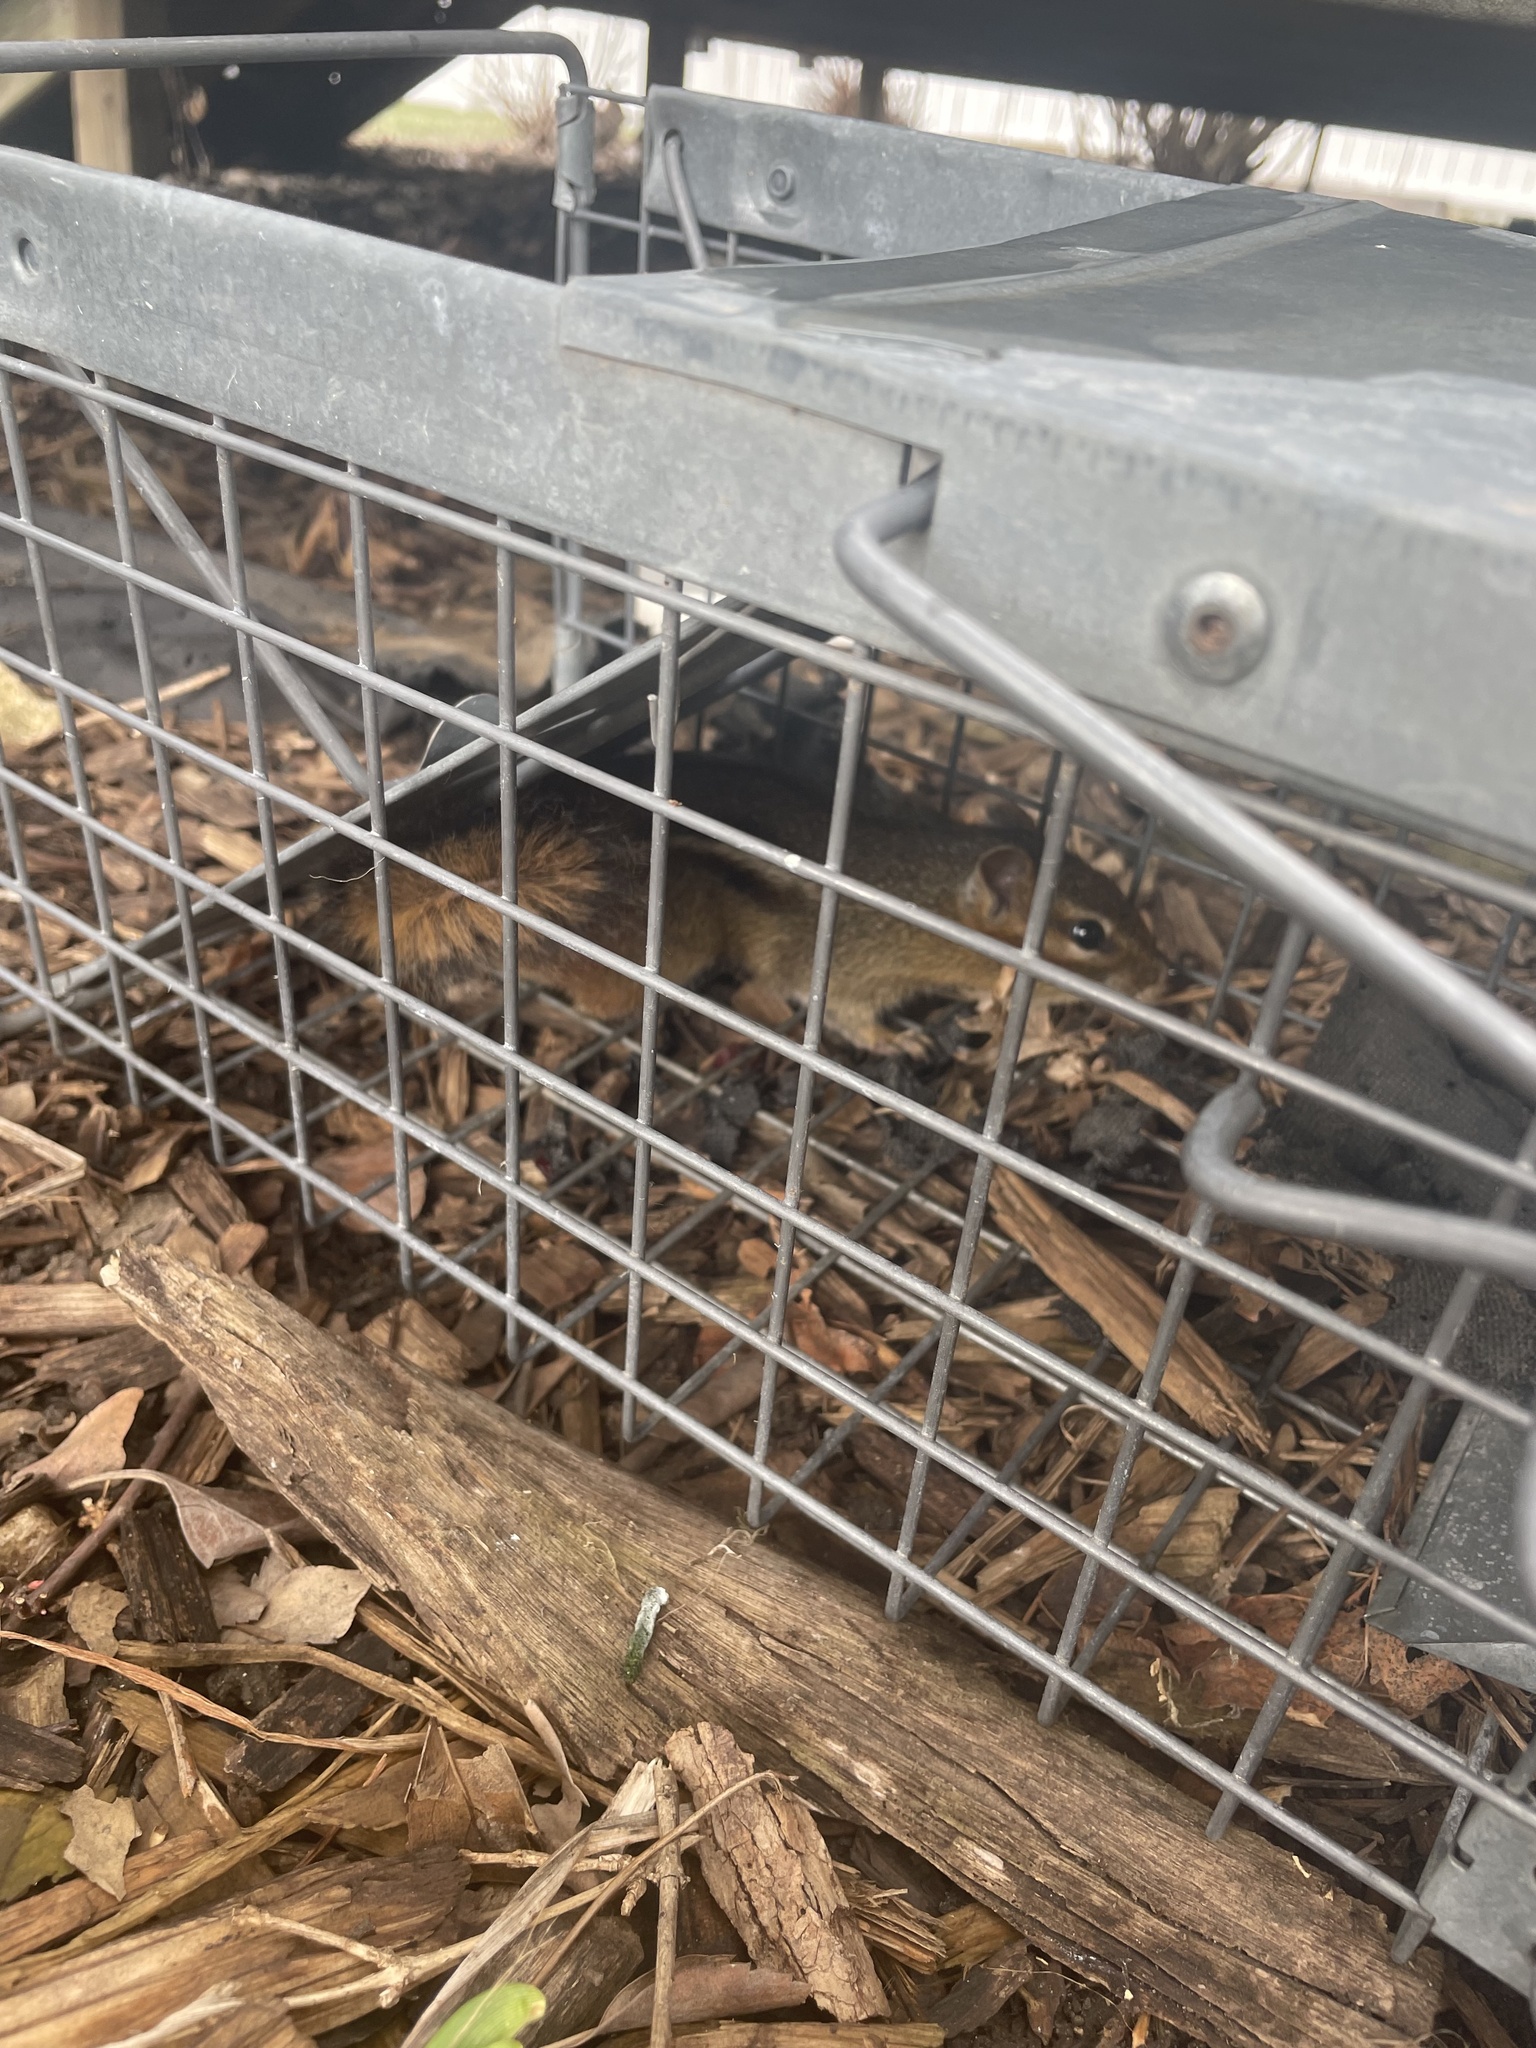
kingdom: Animalia
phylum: Chordata
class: Mammalia
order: Rodentia
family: Sciuridae
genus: Tamias
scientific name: Tamias striatus
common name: Eastern chipmunk
